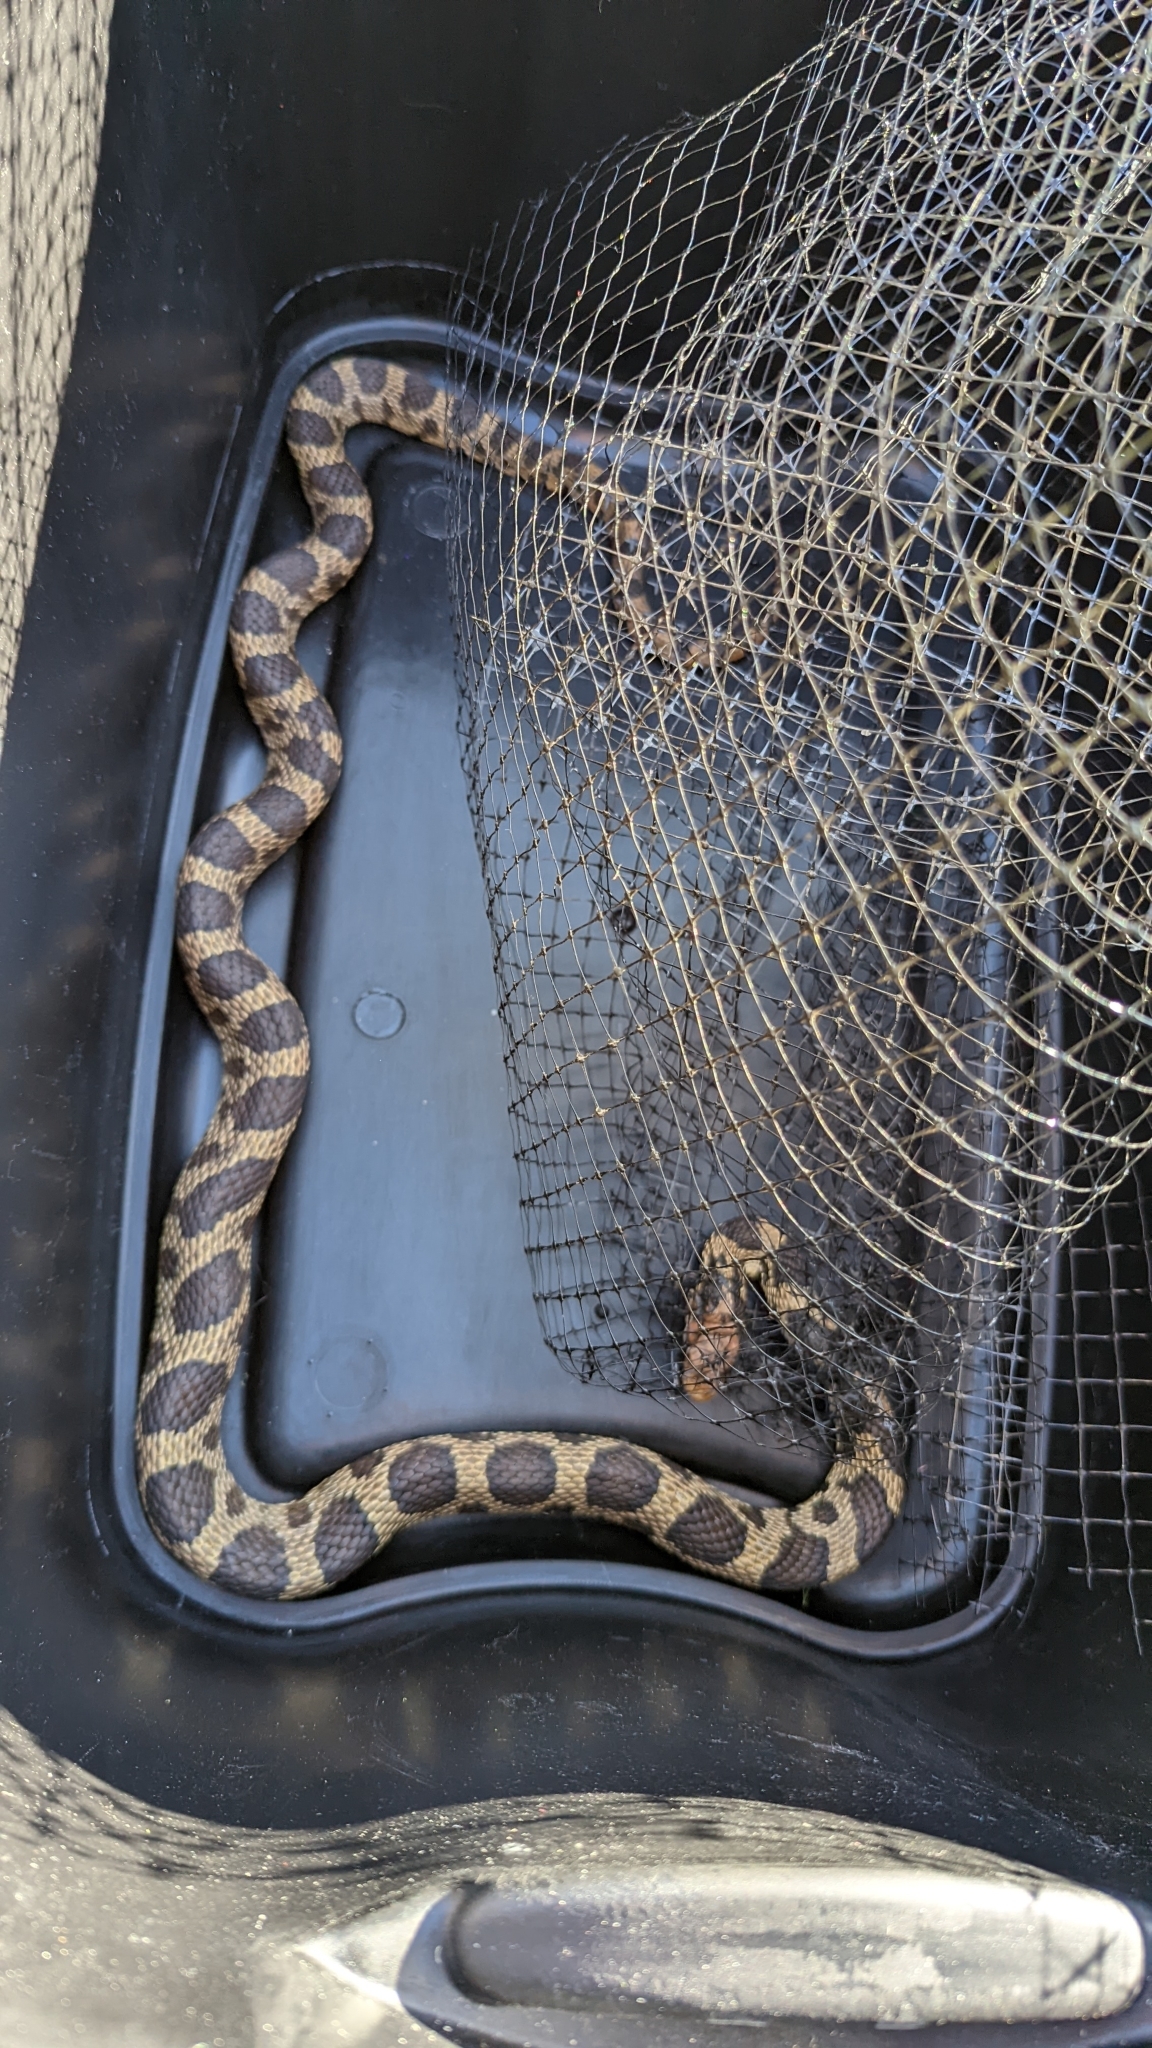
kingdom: Animalia
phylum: Chordata
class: Squamata
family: Colubridae
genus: Pantherophis
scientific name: Pantherophis vulpinus
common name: Eastern fox snake
